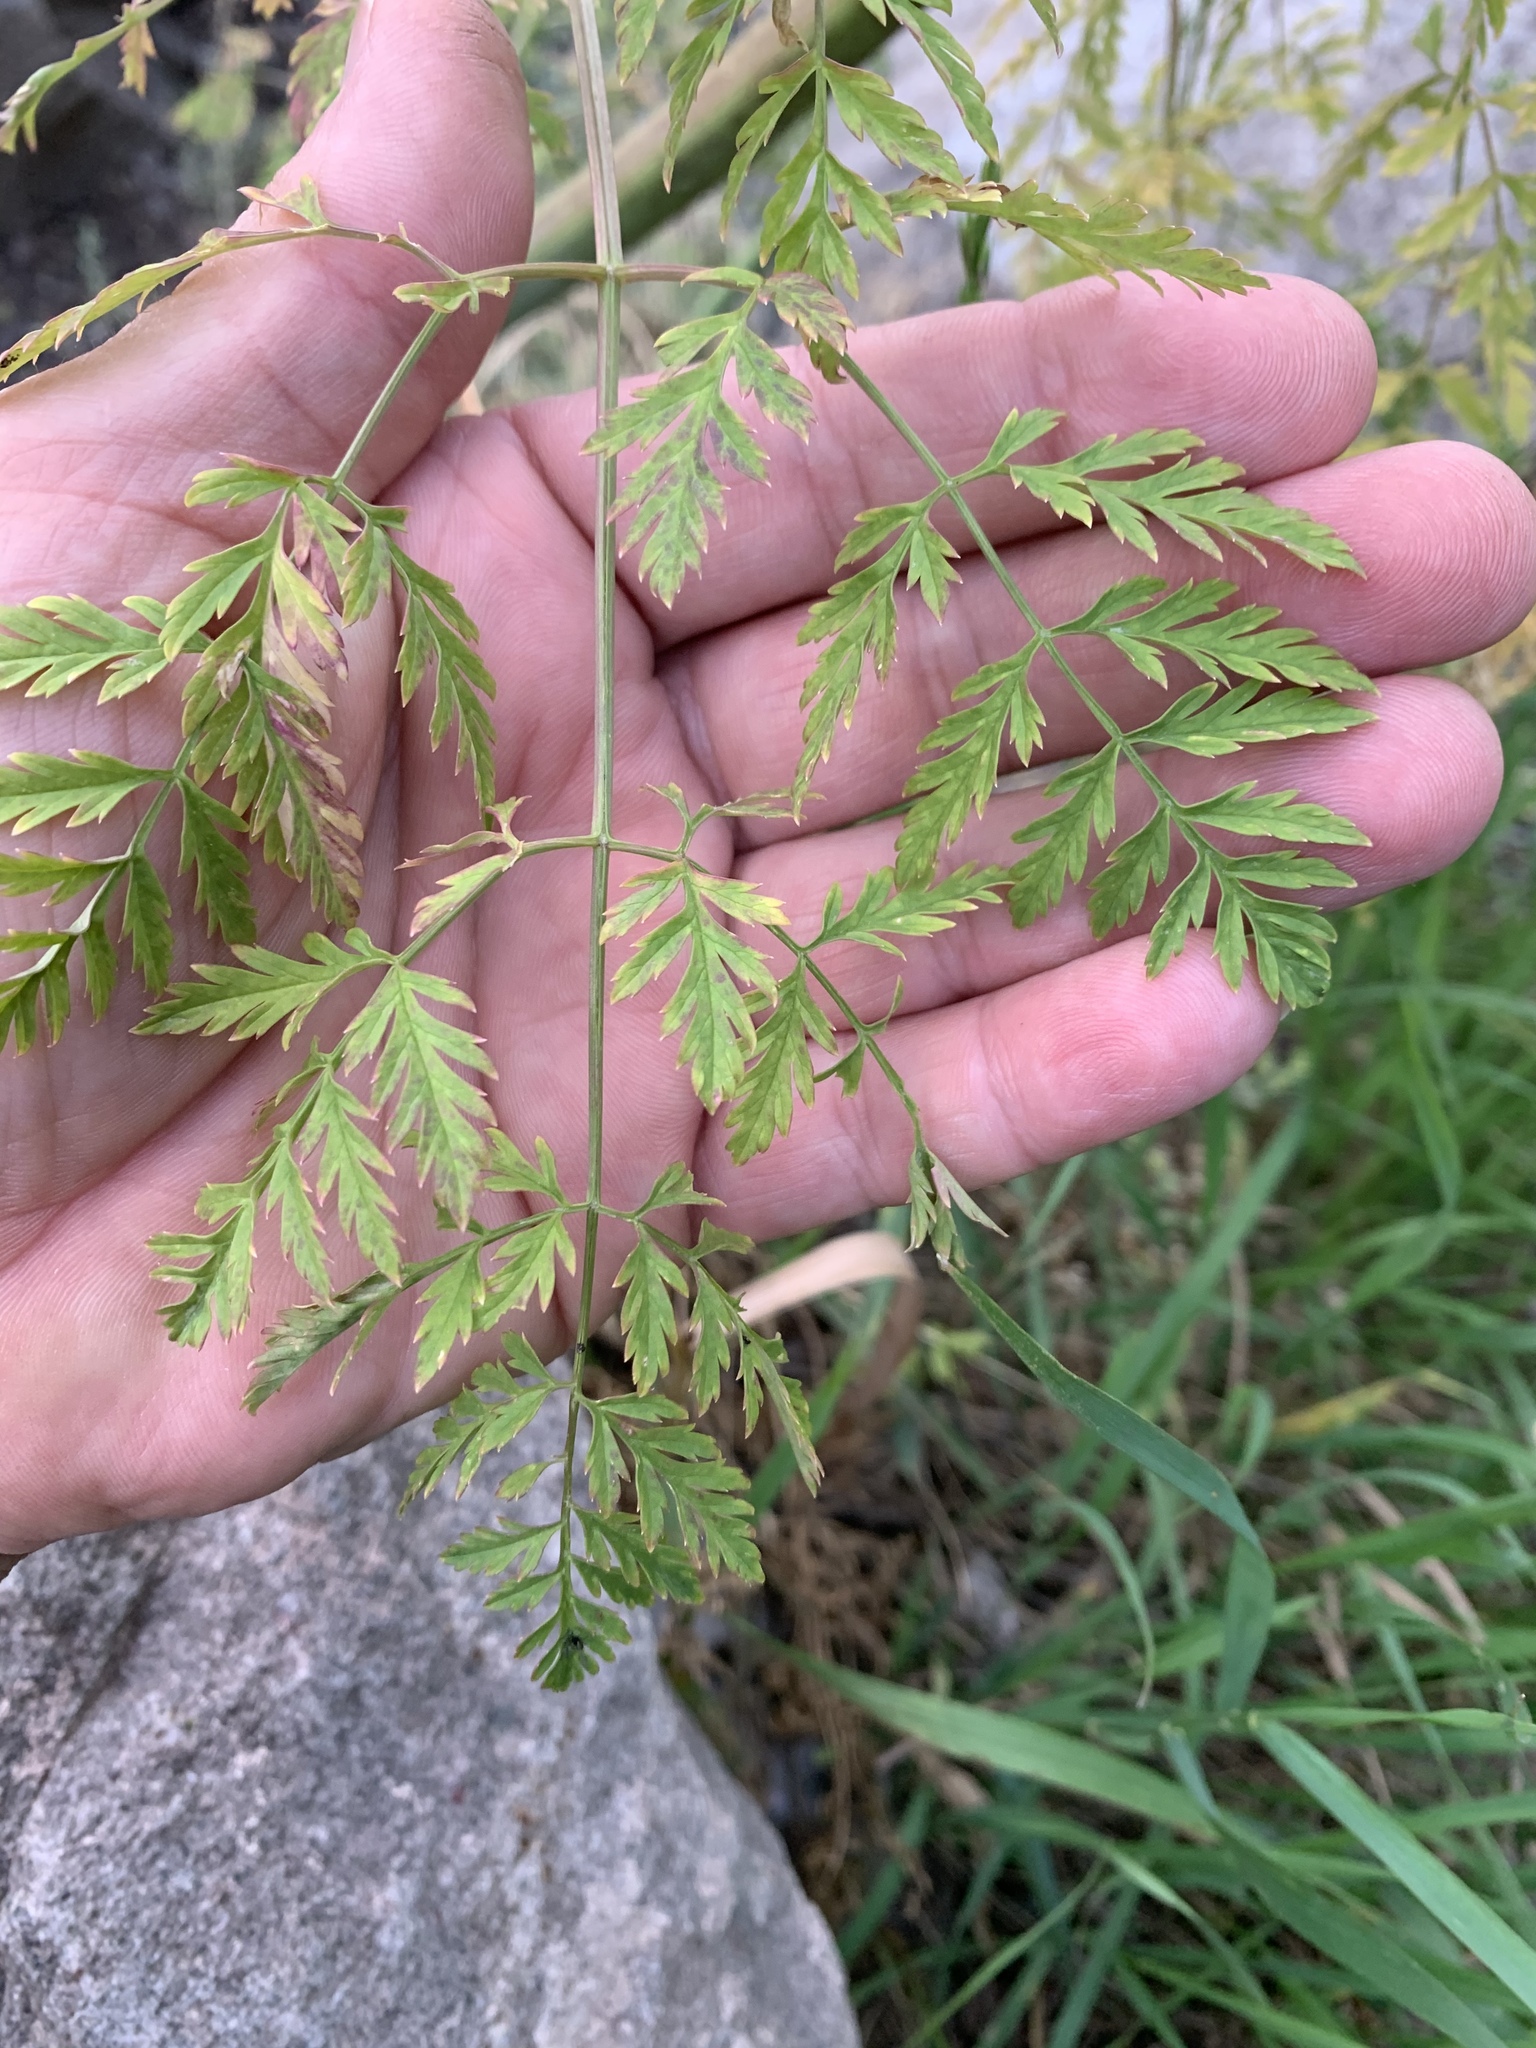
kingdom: Plantae
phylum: Tracheophyta
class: Magnoliopsida
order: Apiales
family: Apiaceae
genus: Conium
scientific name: Conium maculatum
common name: Hemlock
